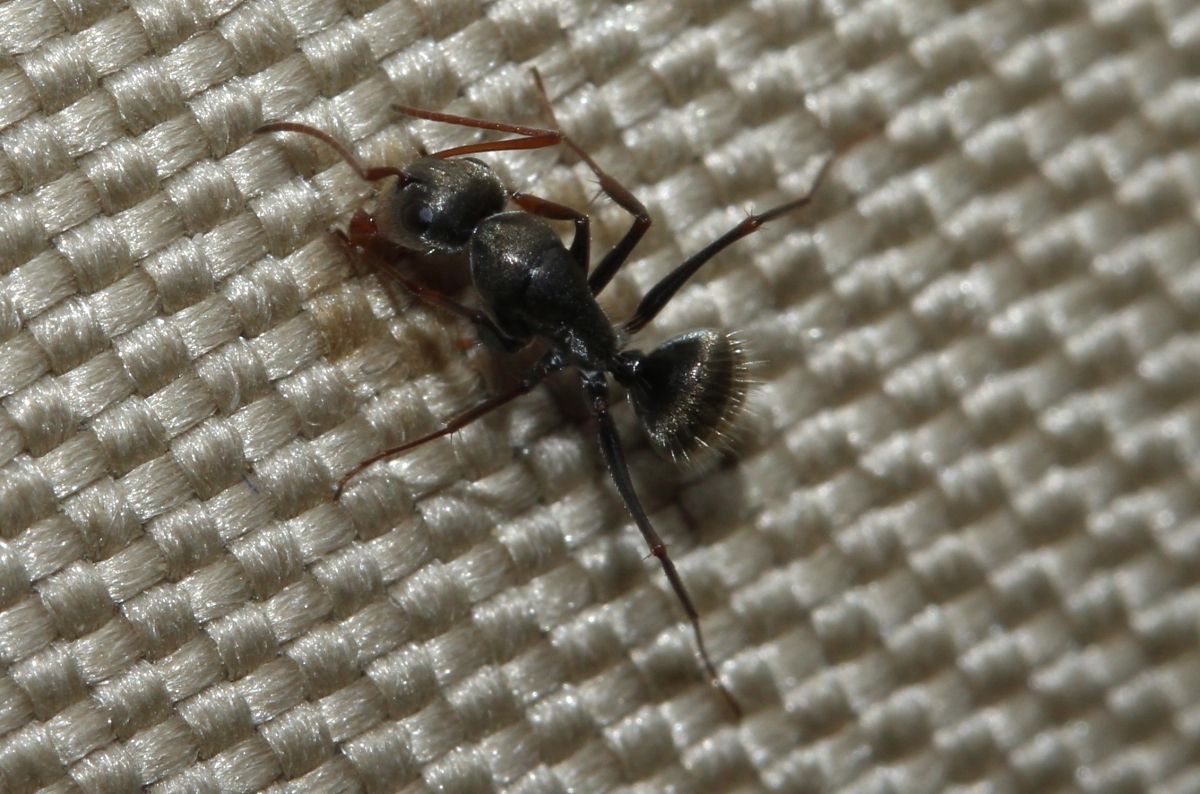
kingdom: Animalia
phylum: Arthropoda
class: Insecta
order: Hymenoptera
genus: Myrmaphaenus
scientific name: Myrmaphaenus
